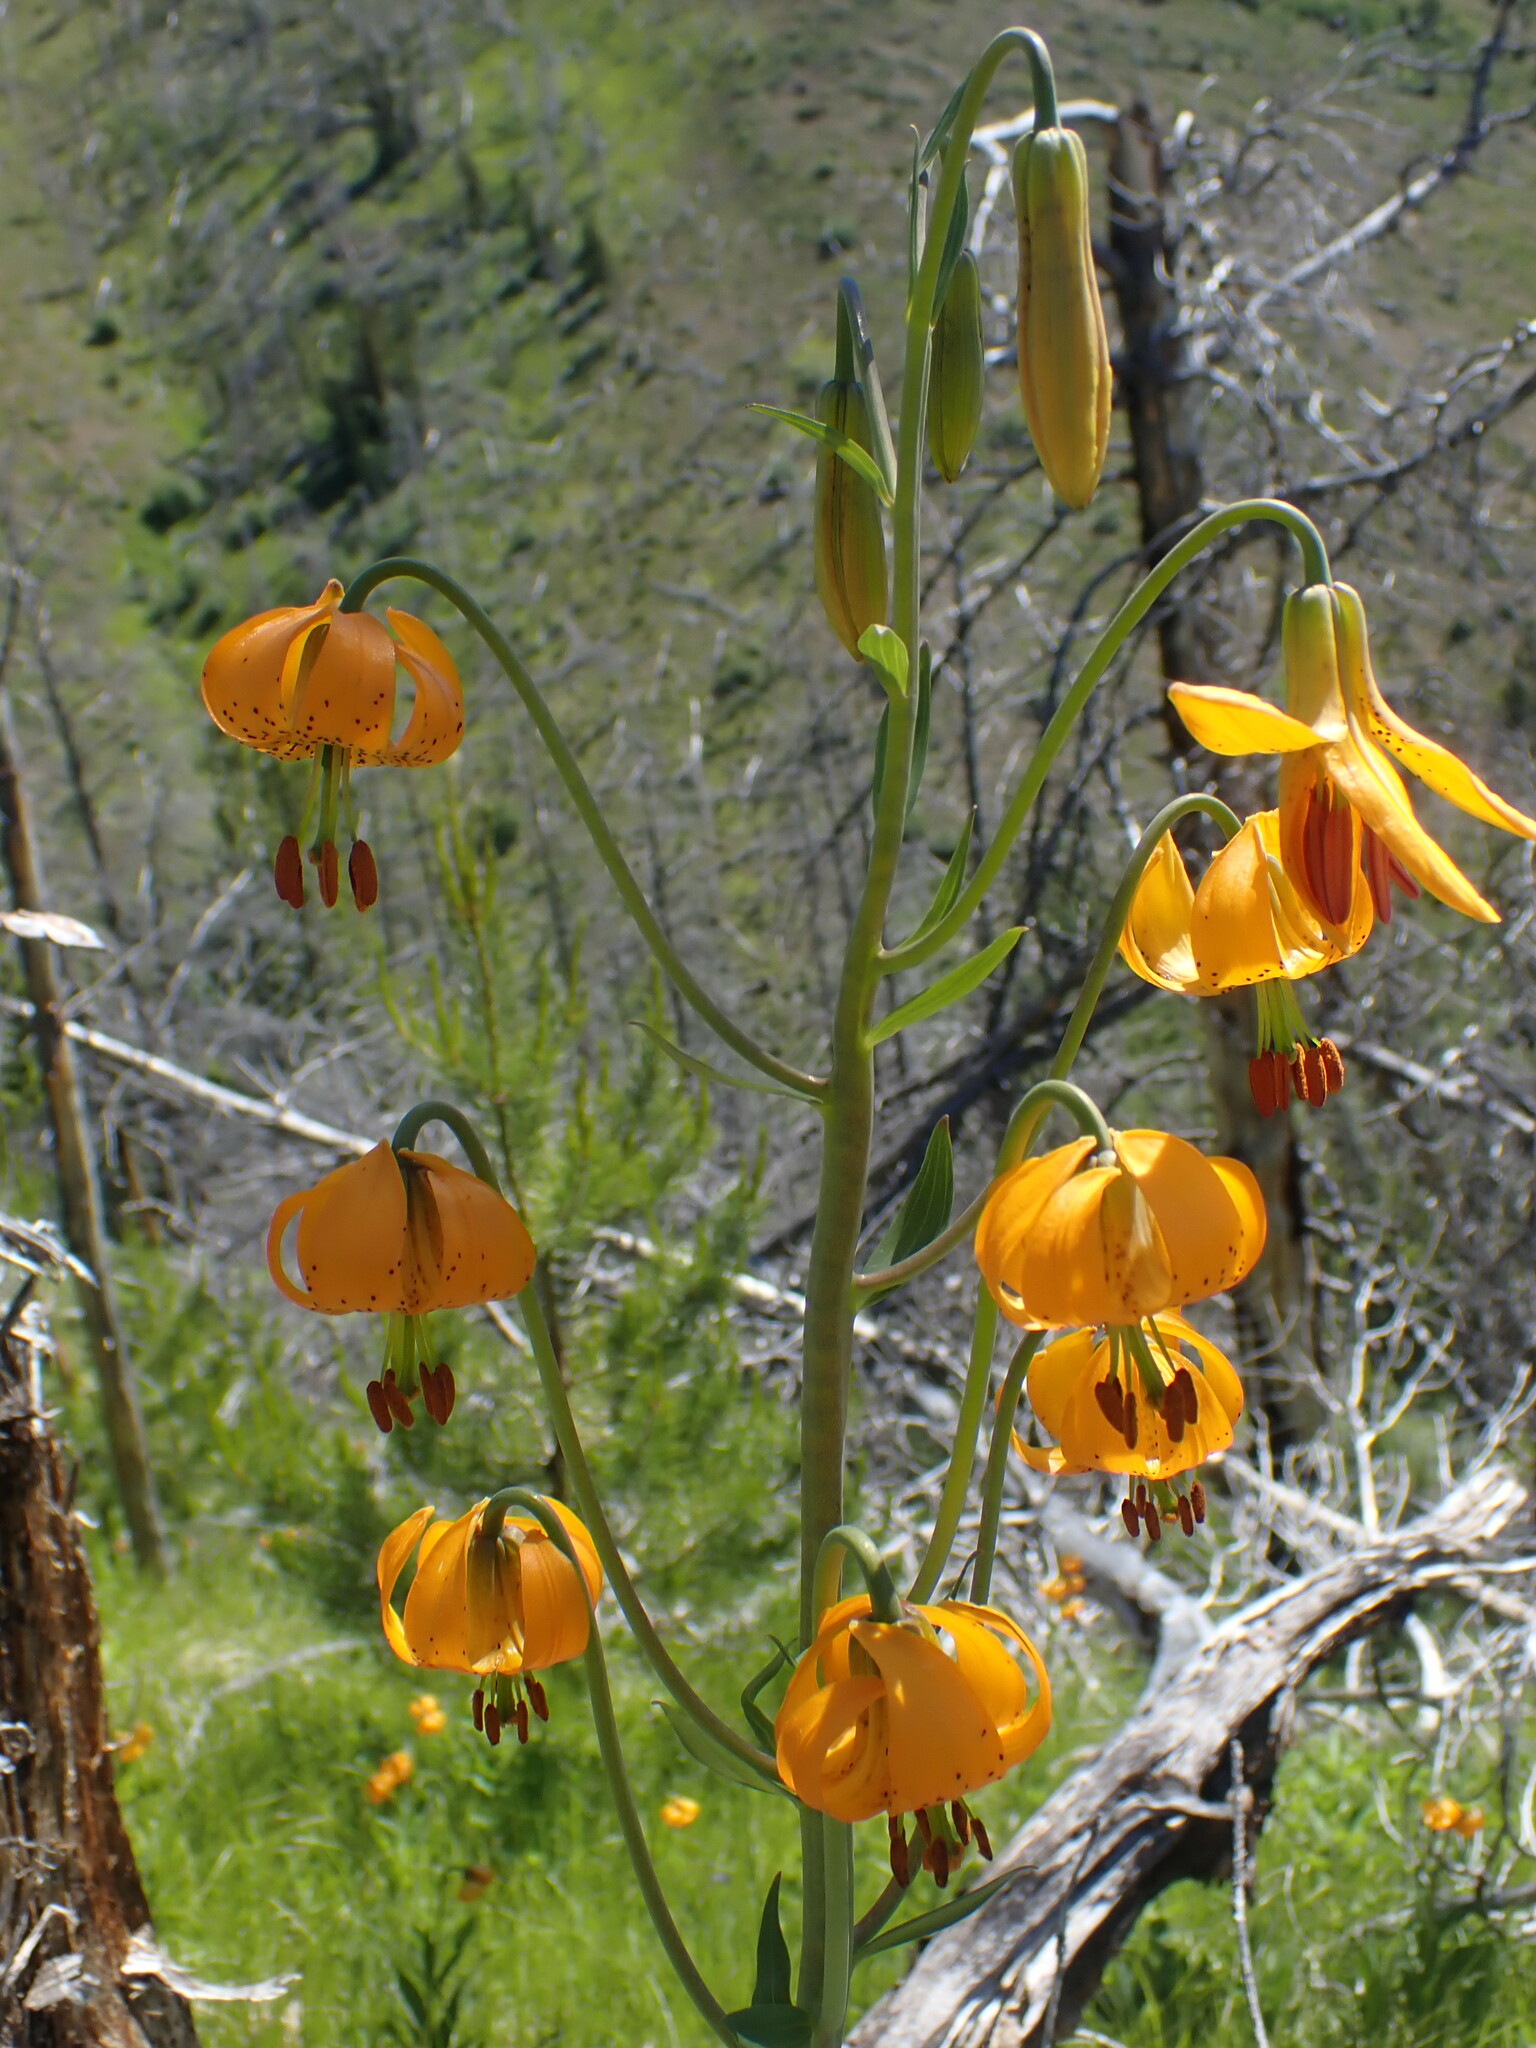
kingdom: Plantae
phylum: Tracheophyta
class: Liliopsida
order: Liliales
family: Liliaceae
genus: Lilium
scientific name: Lilium columbianum
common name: Columbia lily
